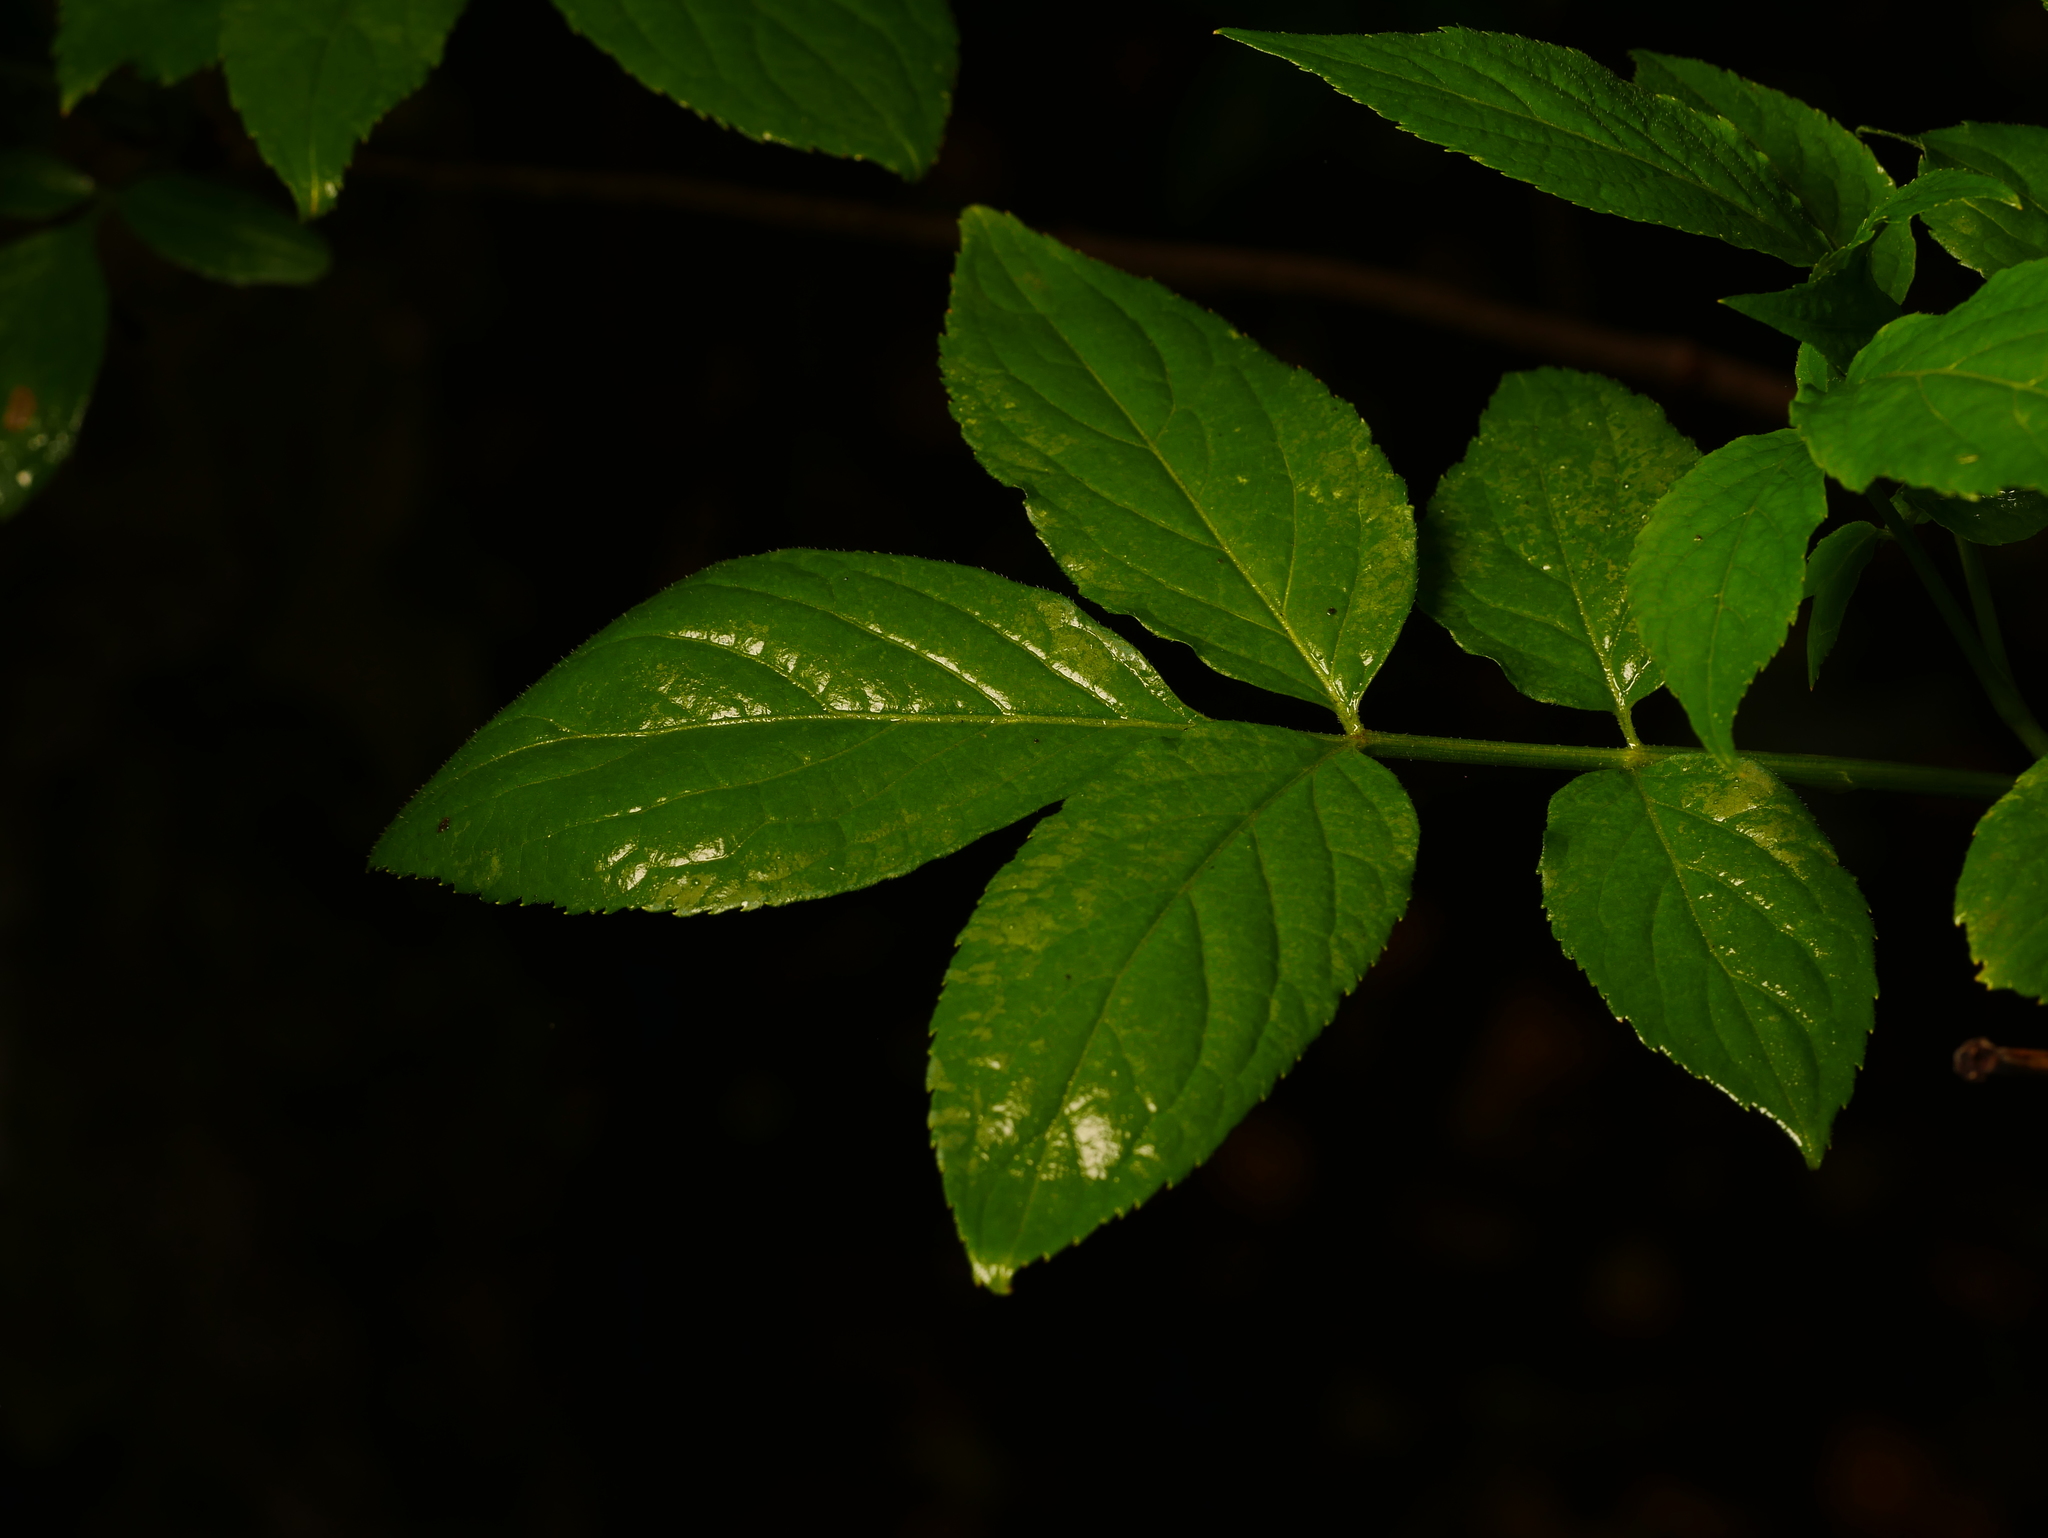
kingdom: Plantae
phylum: Tracheophyta
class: Magnoliopsida
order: Dipsacales
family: Viburnaceae
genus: Sambucus
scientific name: Sambucus nigra
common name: Elder
